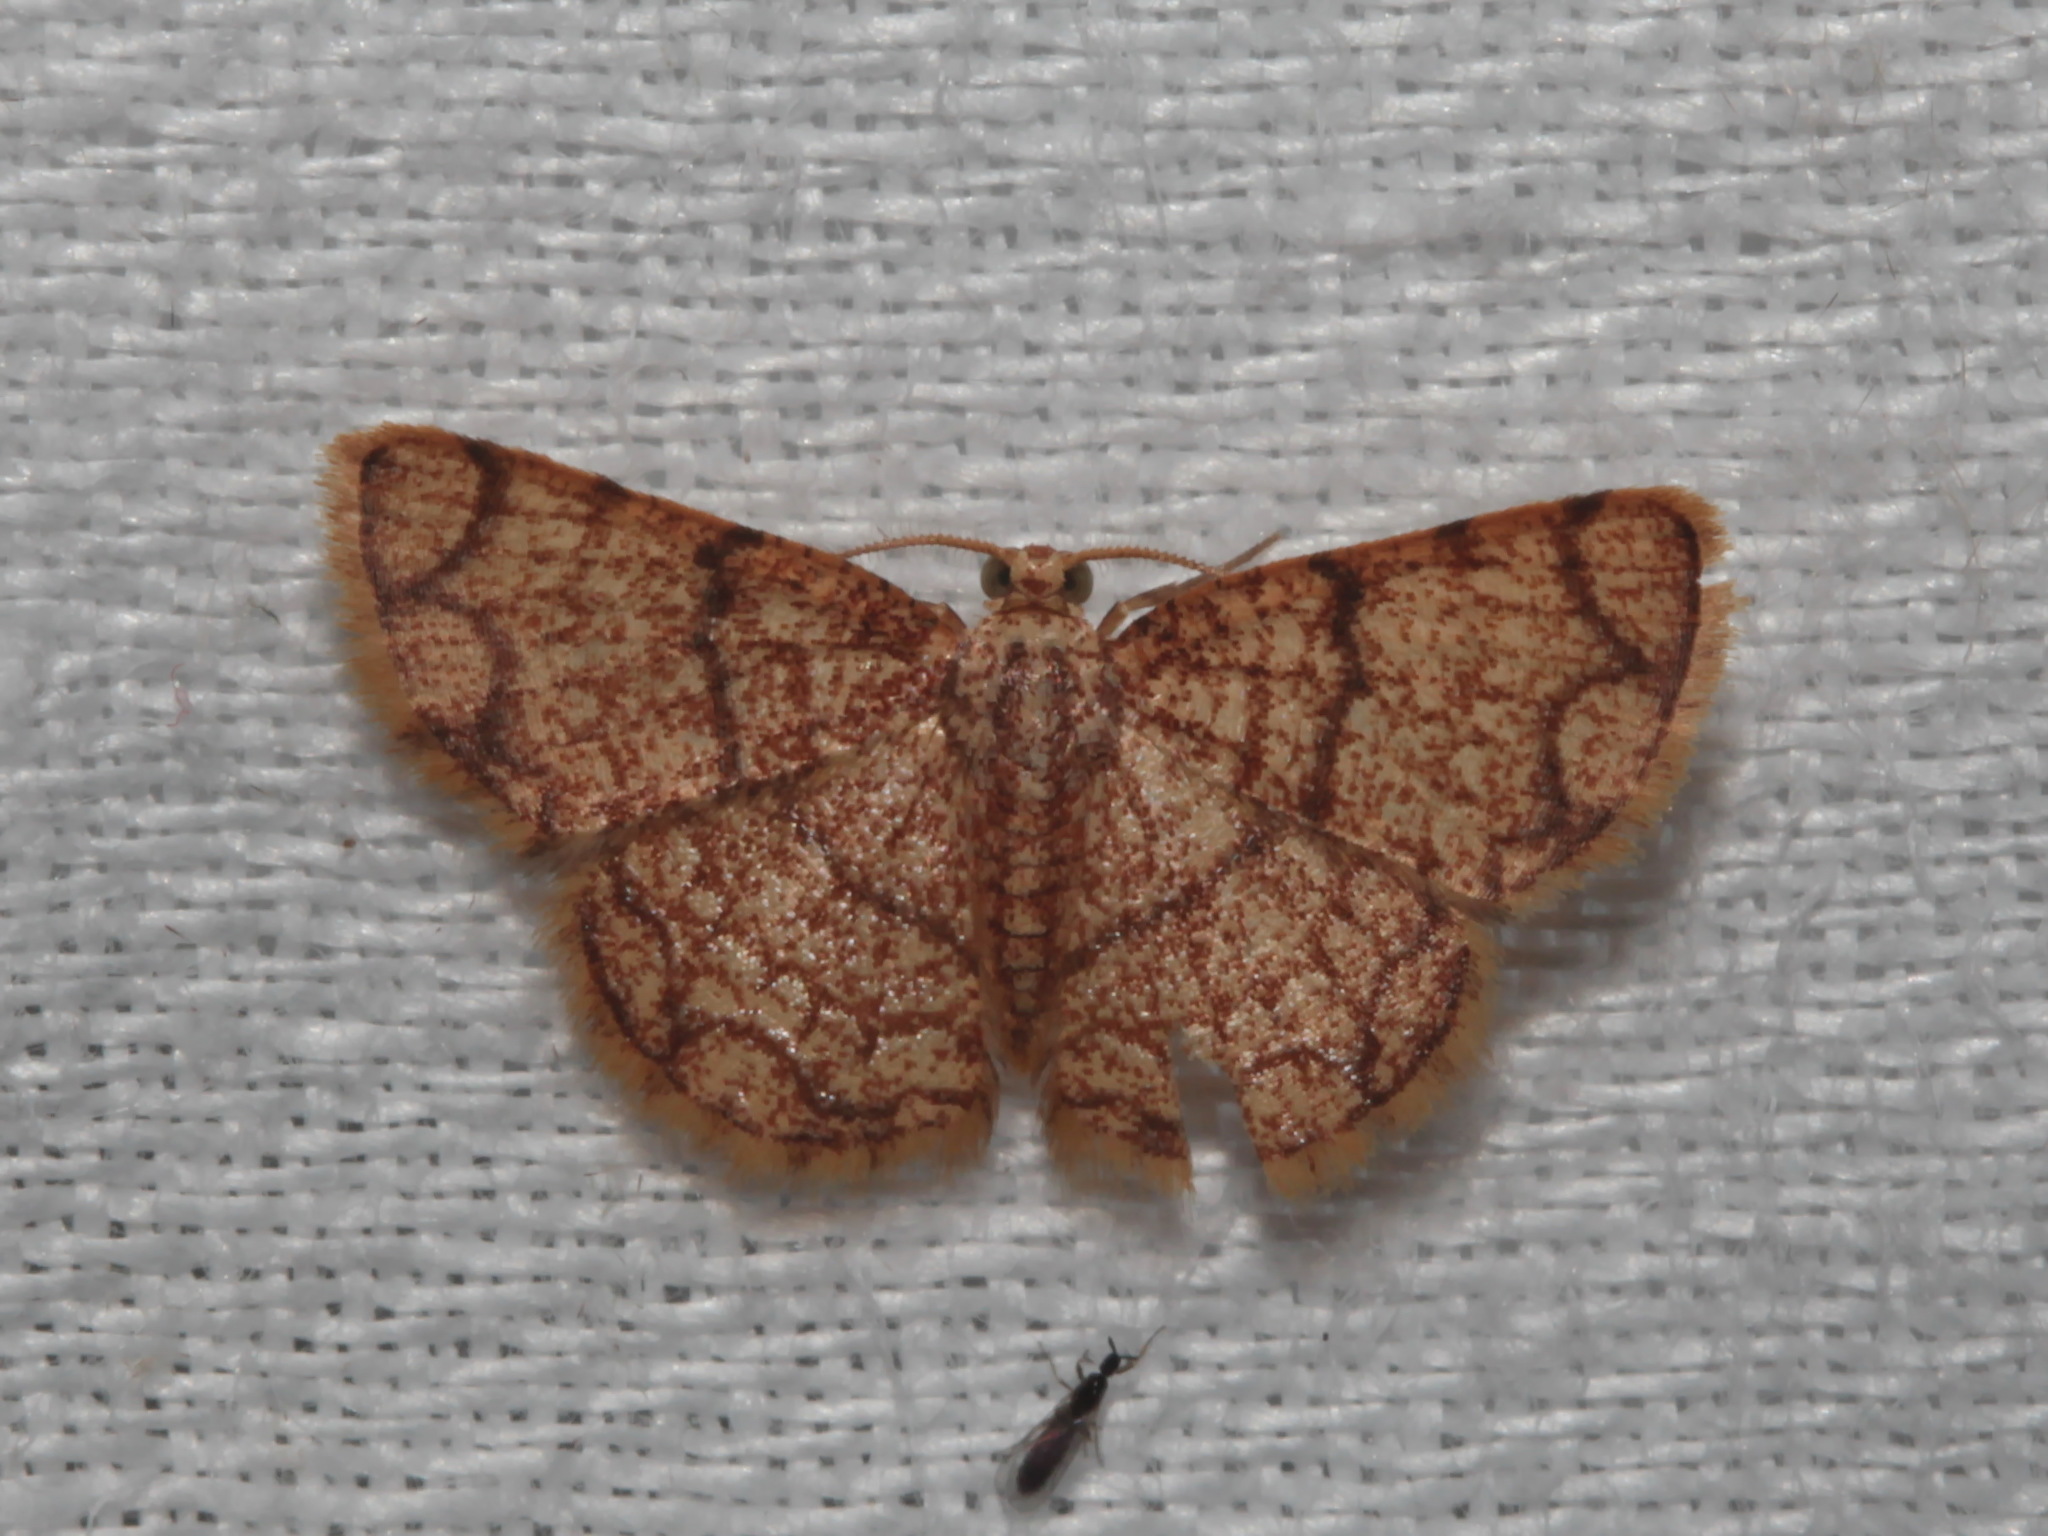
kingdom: Animalia
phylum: Arthropoda
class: Insecta
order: Lepidoptera
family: Geometridae
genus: Heterostegane
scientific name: Heterostegane urbica
